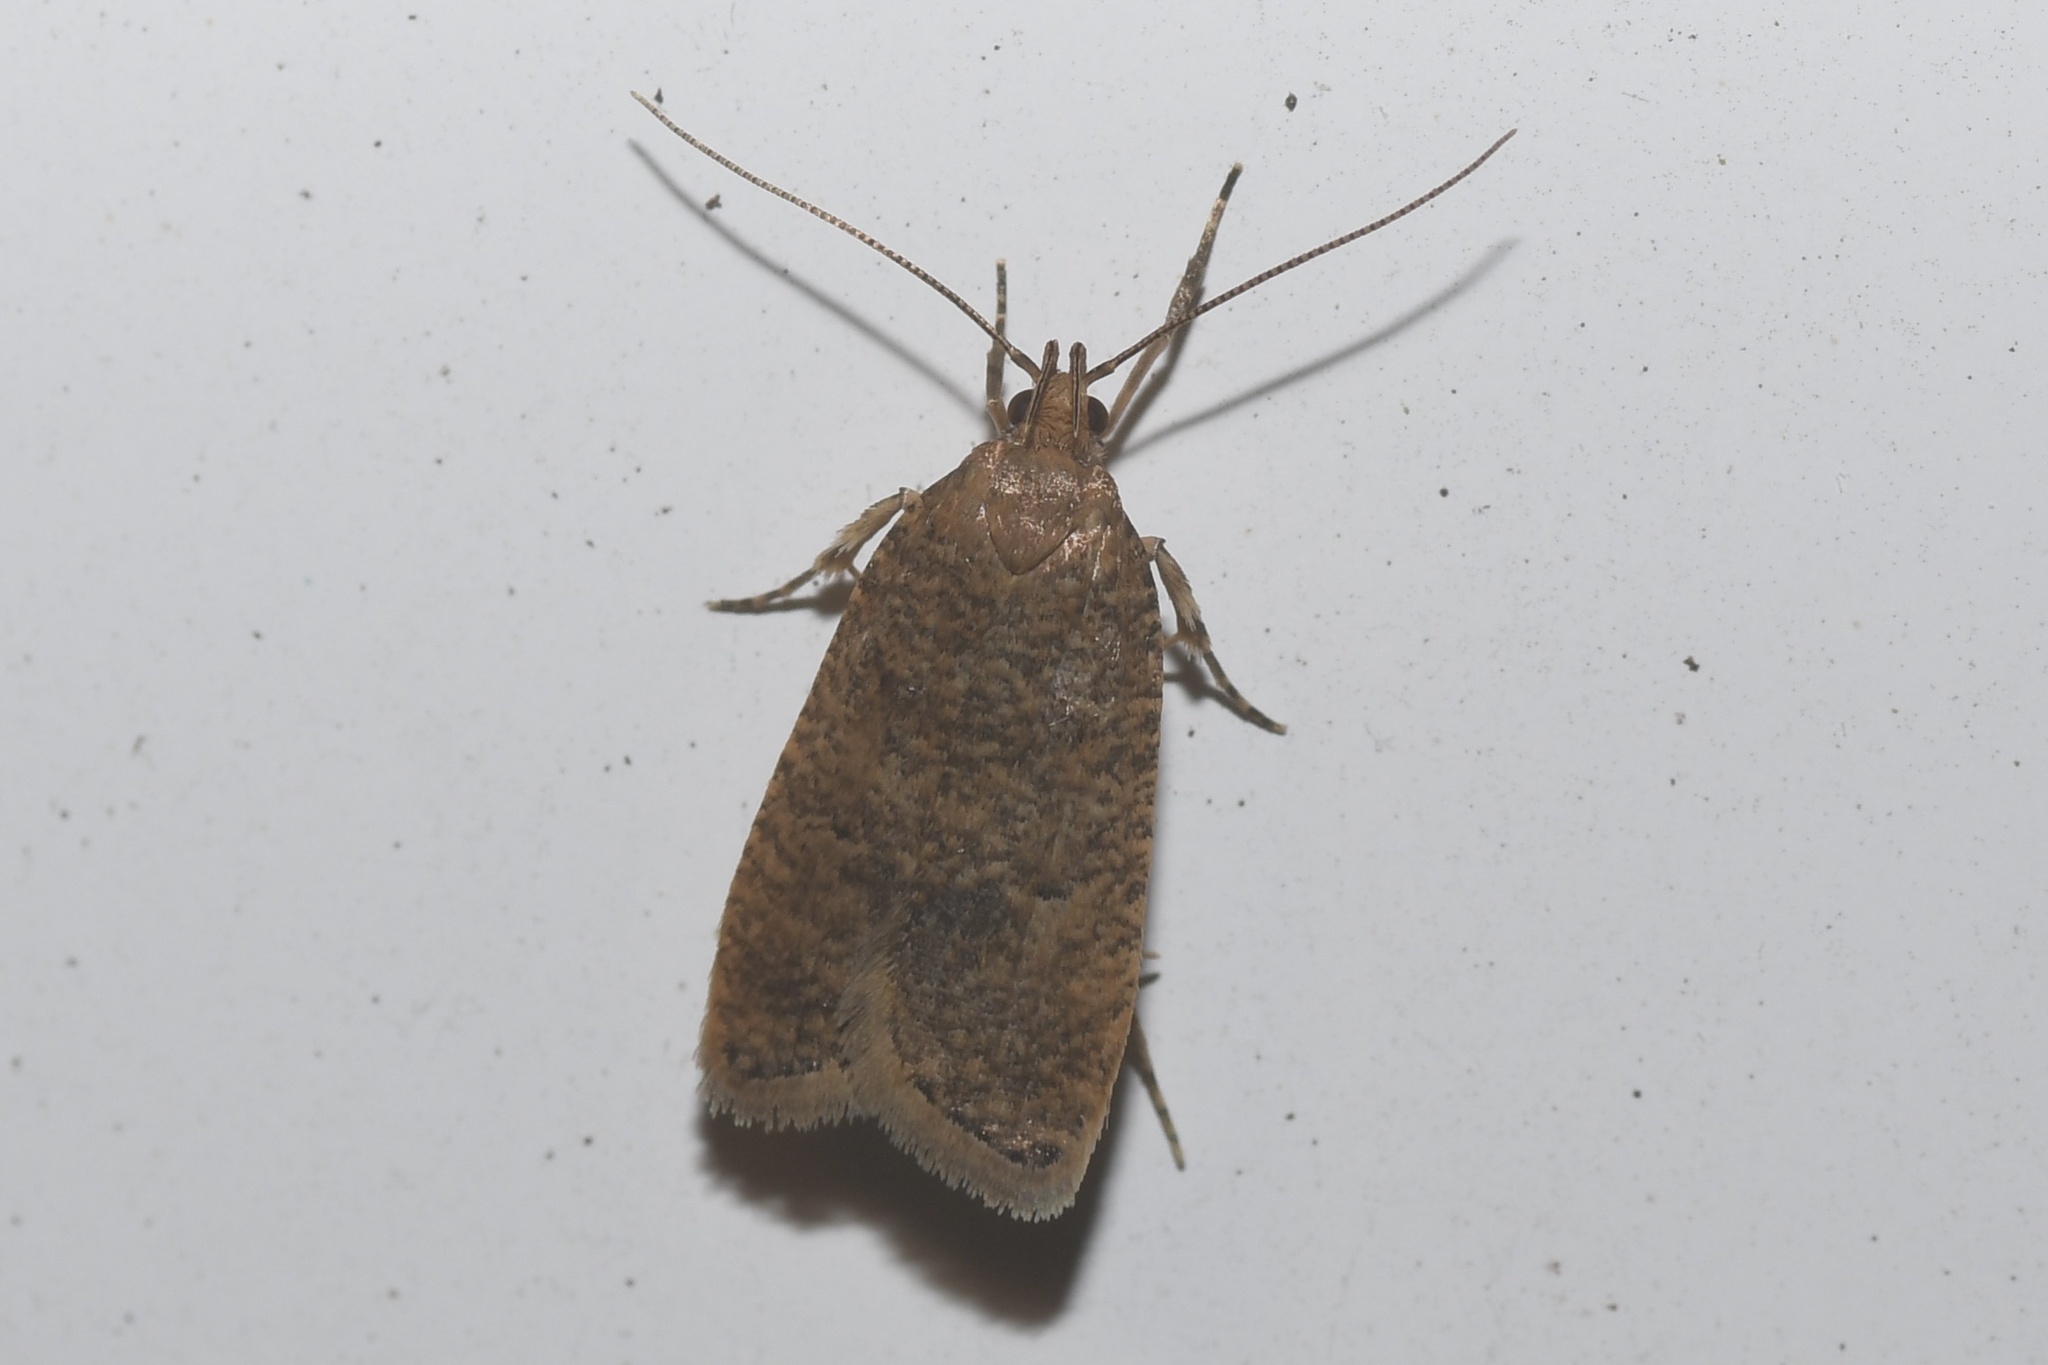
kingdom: Animalia
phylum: Arthropoda
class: Insecta
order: Lepidoptera
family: Depressariidae
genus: Psilocorsis
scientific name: Psilocorsis reflexella
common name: Dotted leaftier moth
